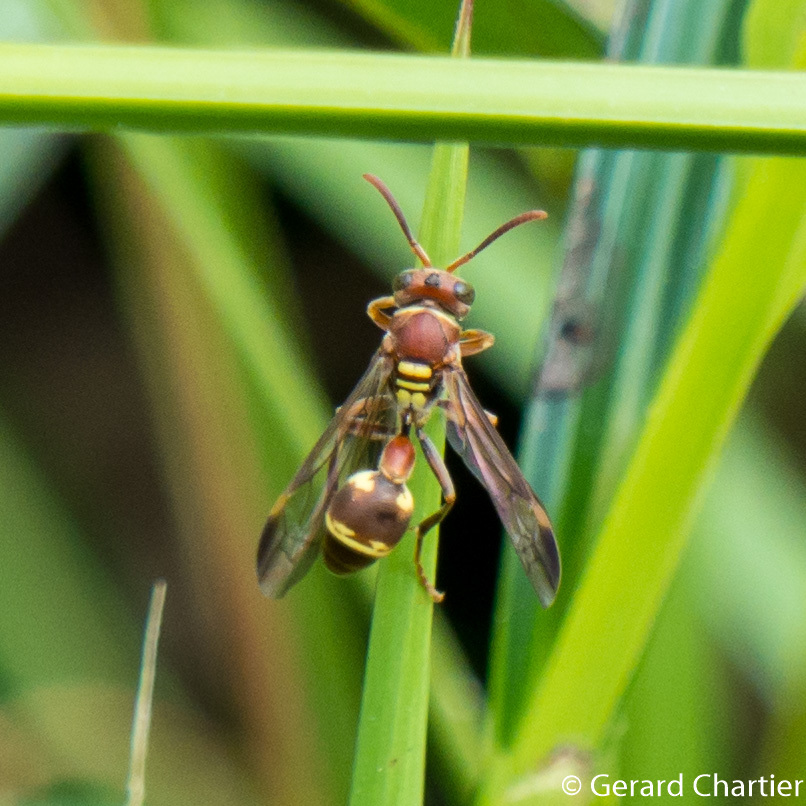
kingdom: Animalia
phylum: Arthropoda
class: Insecta
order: Hymenoptera
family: Vespidae
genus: Ropalidia
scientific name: Ropalidia stigma
